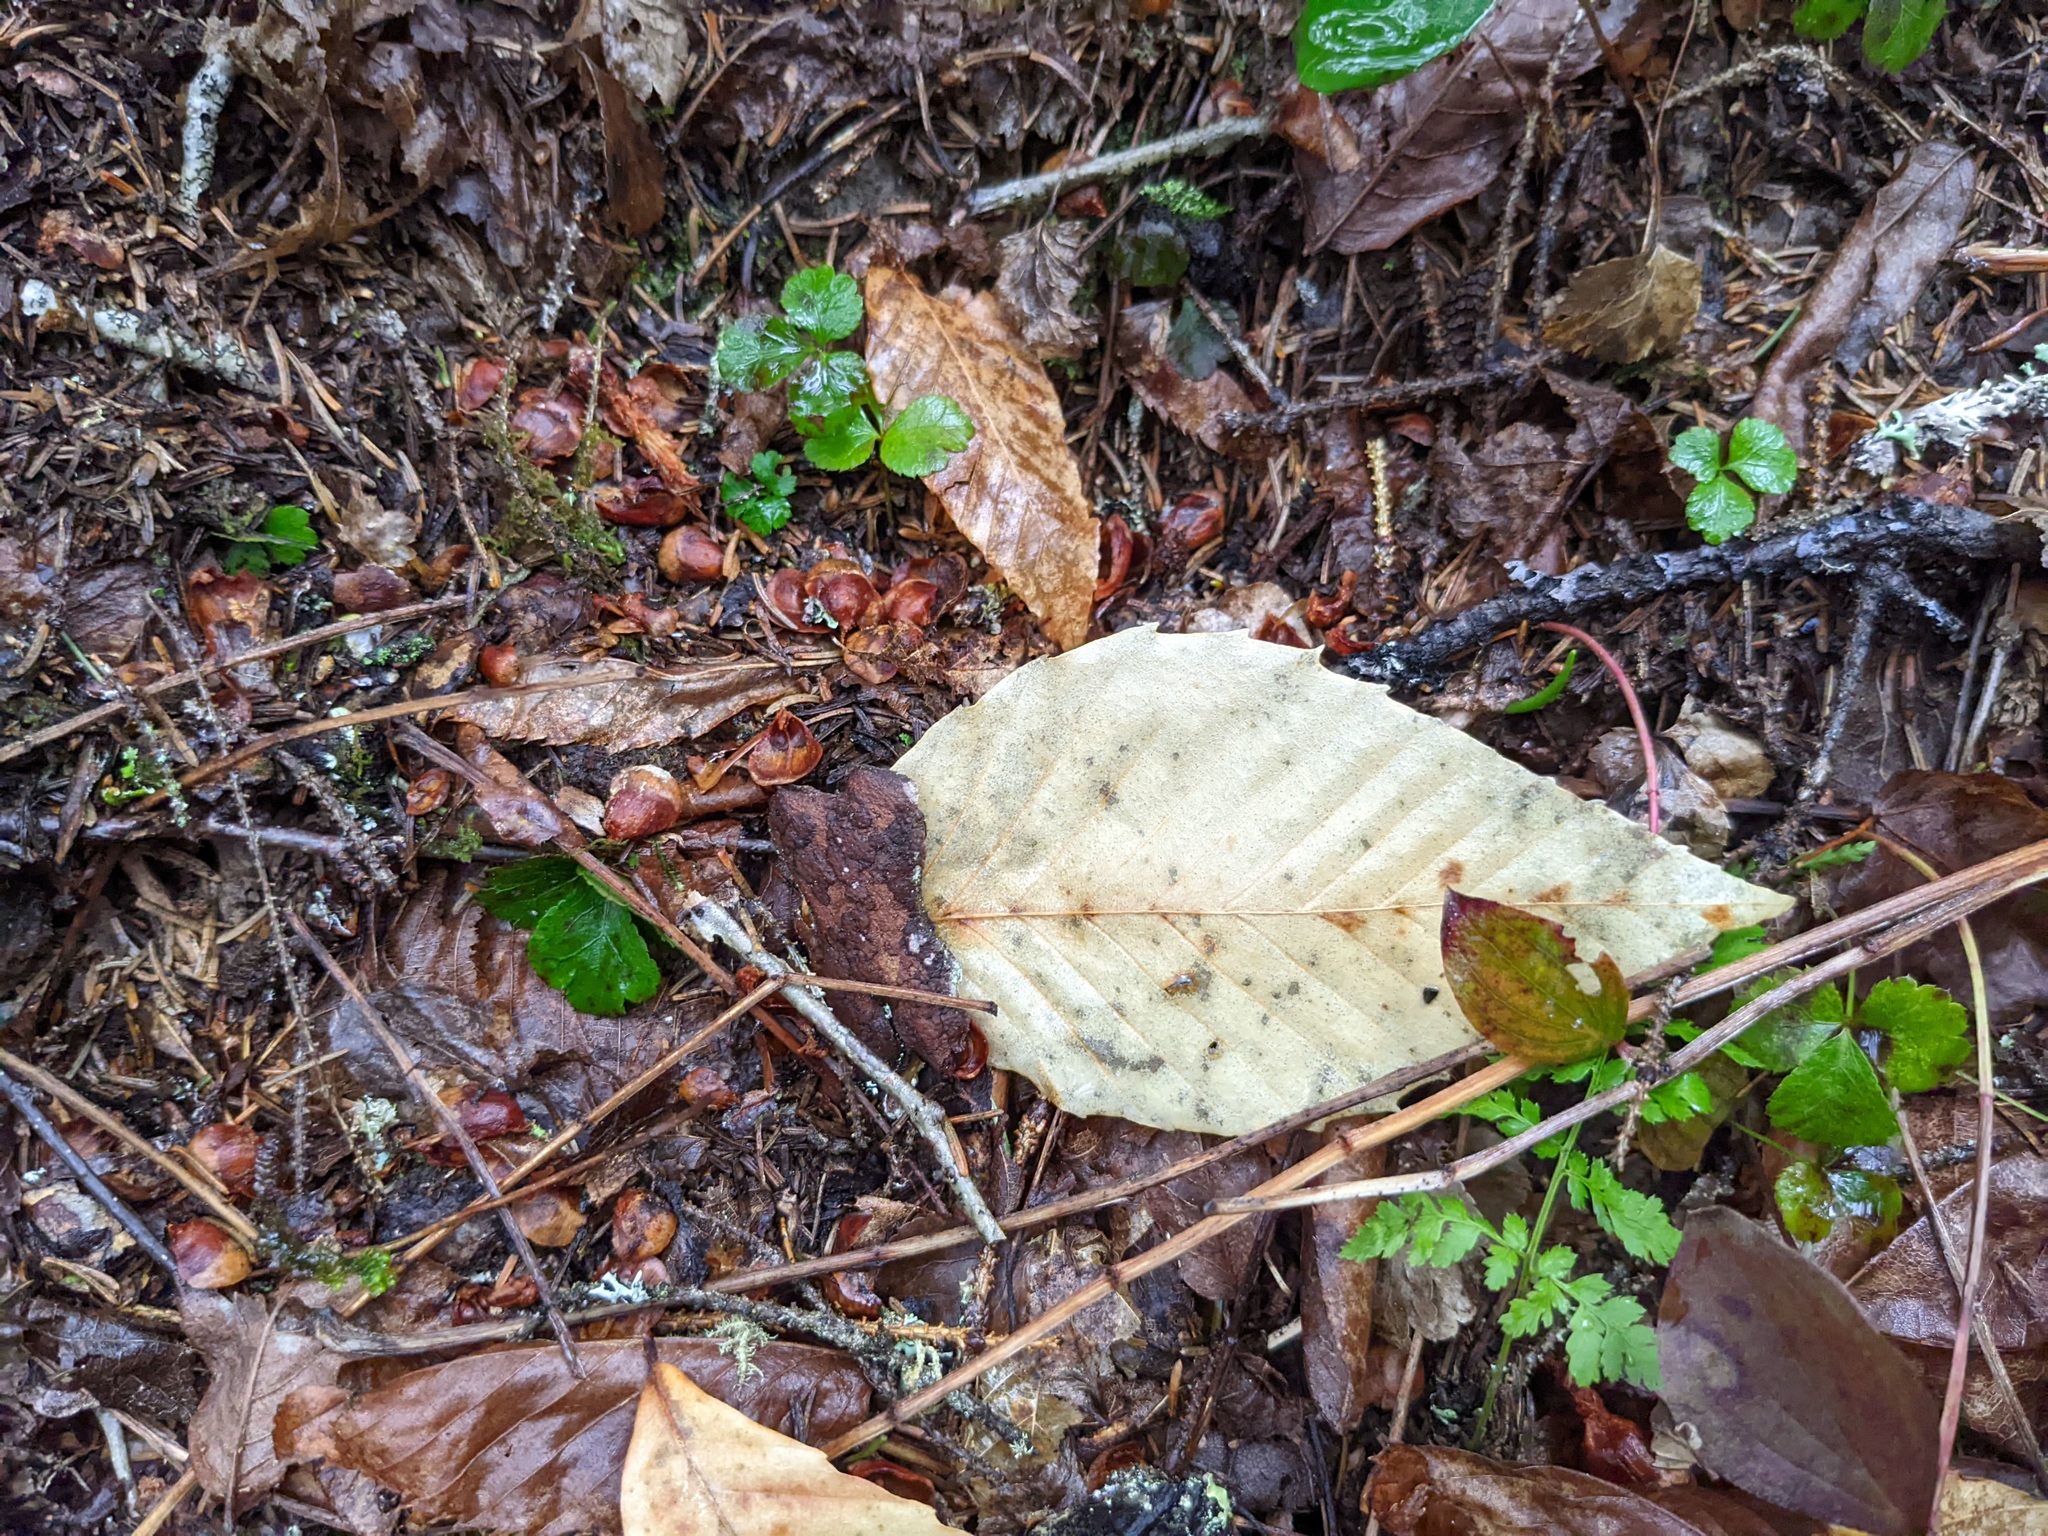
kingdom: Plantae
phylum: Tracheophyta
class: Magnoliopsida
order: Fagales
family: Fagaceae
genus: Fagus
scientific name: Fagus grandifolia
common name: American beech
